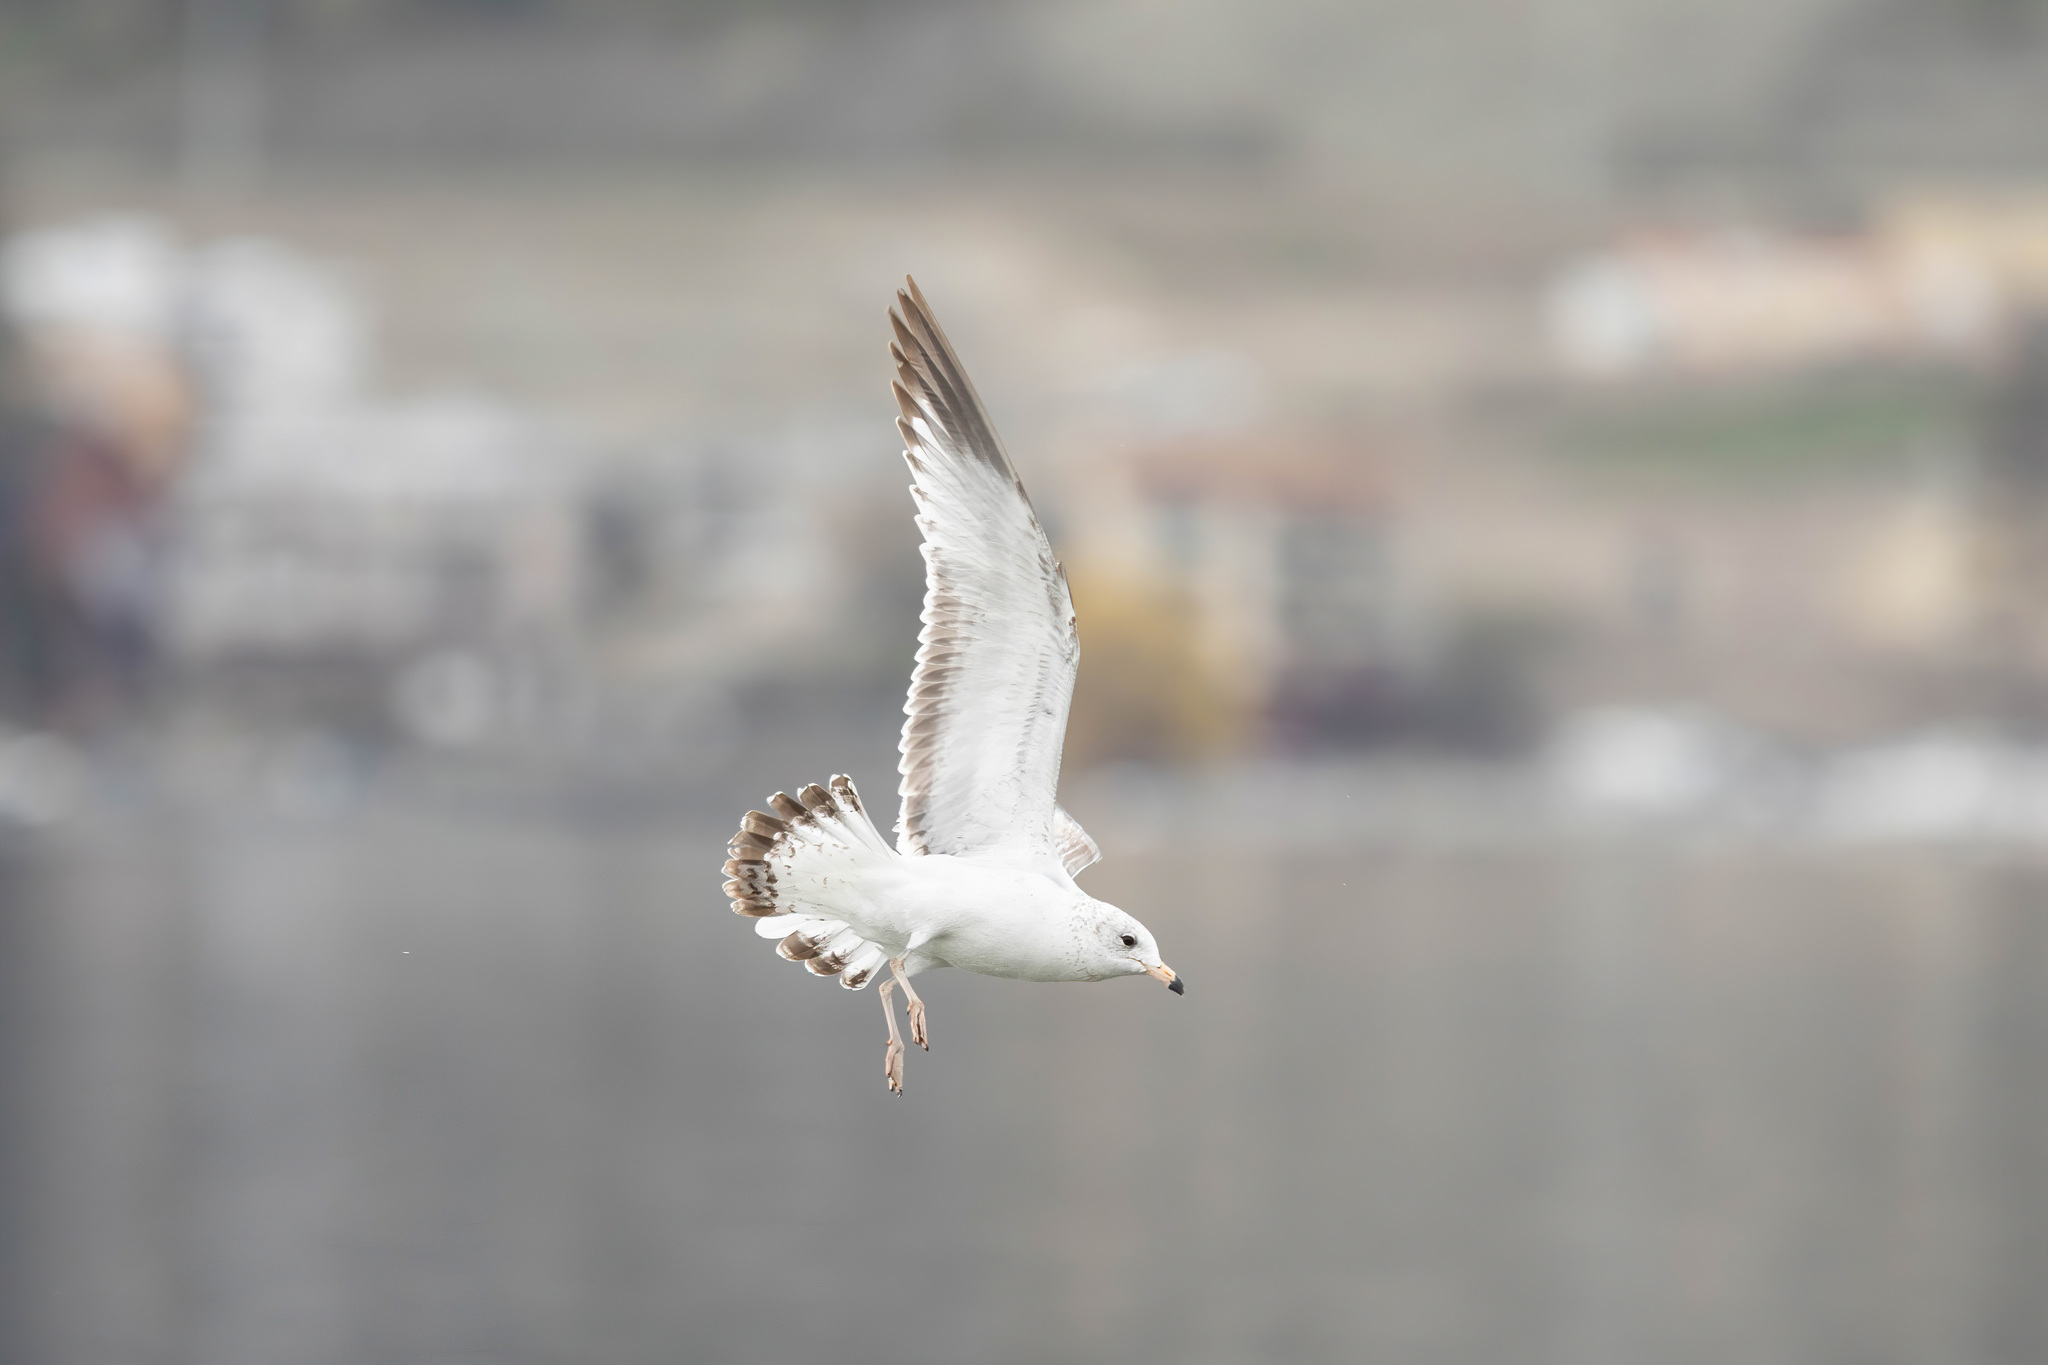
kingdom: Animalia
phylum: Chordata
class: Aves
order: Charadriiformes
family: Laridae
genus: Larus
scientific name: Larus delawarensis
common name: Ring-billed gull
